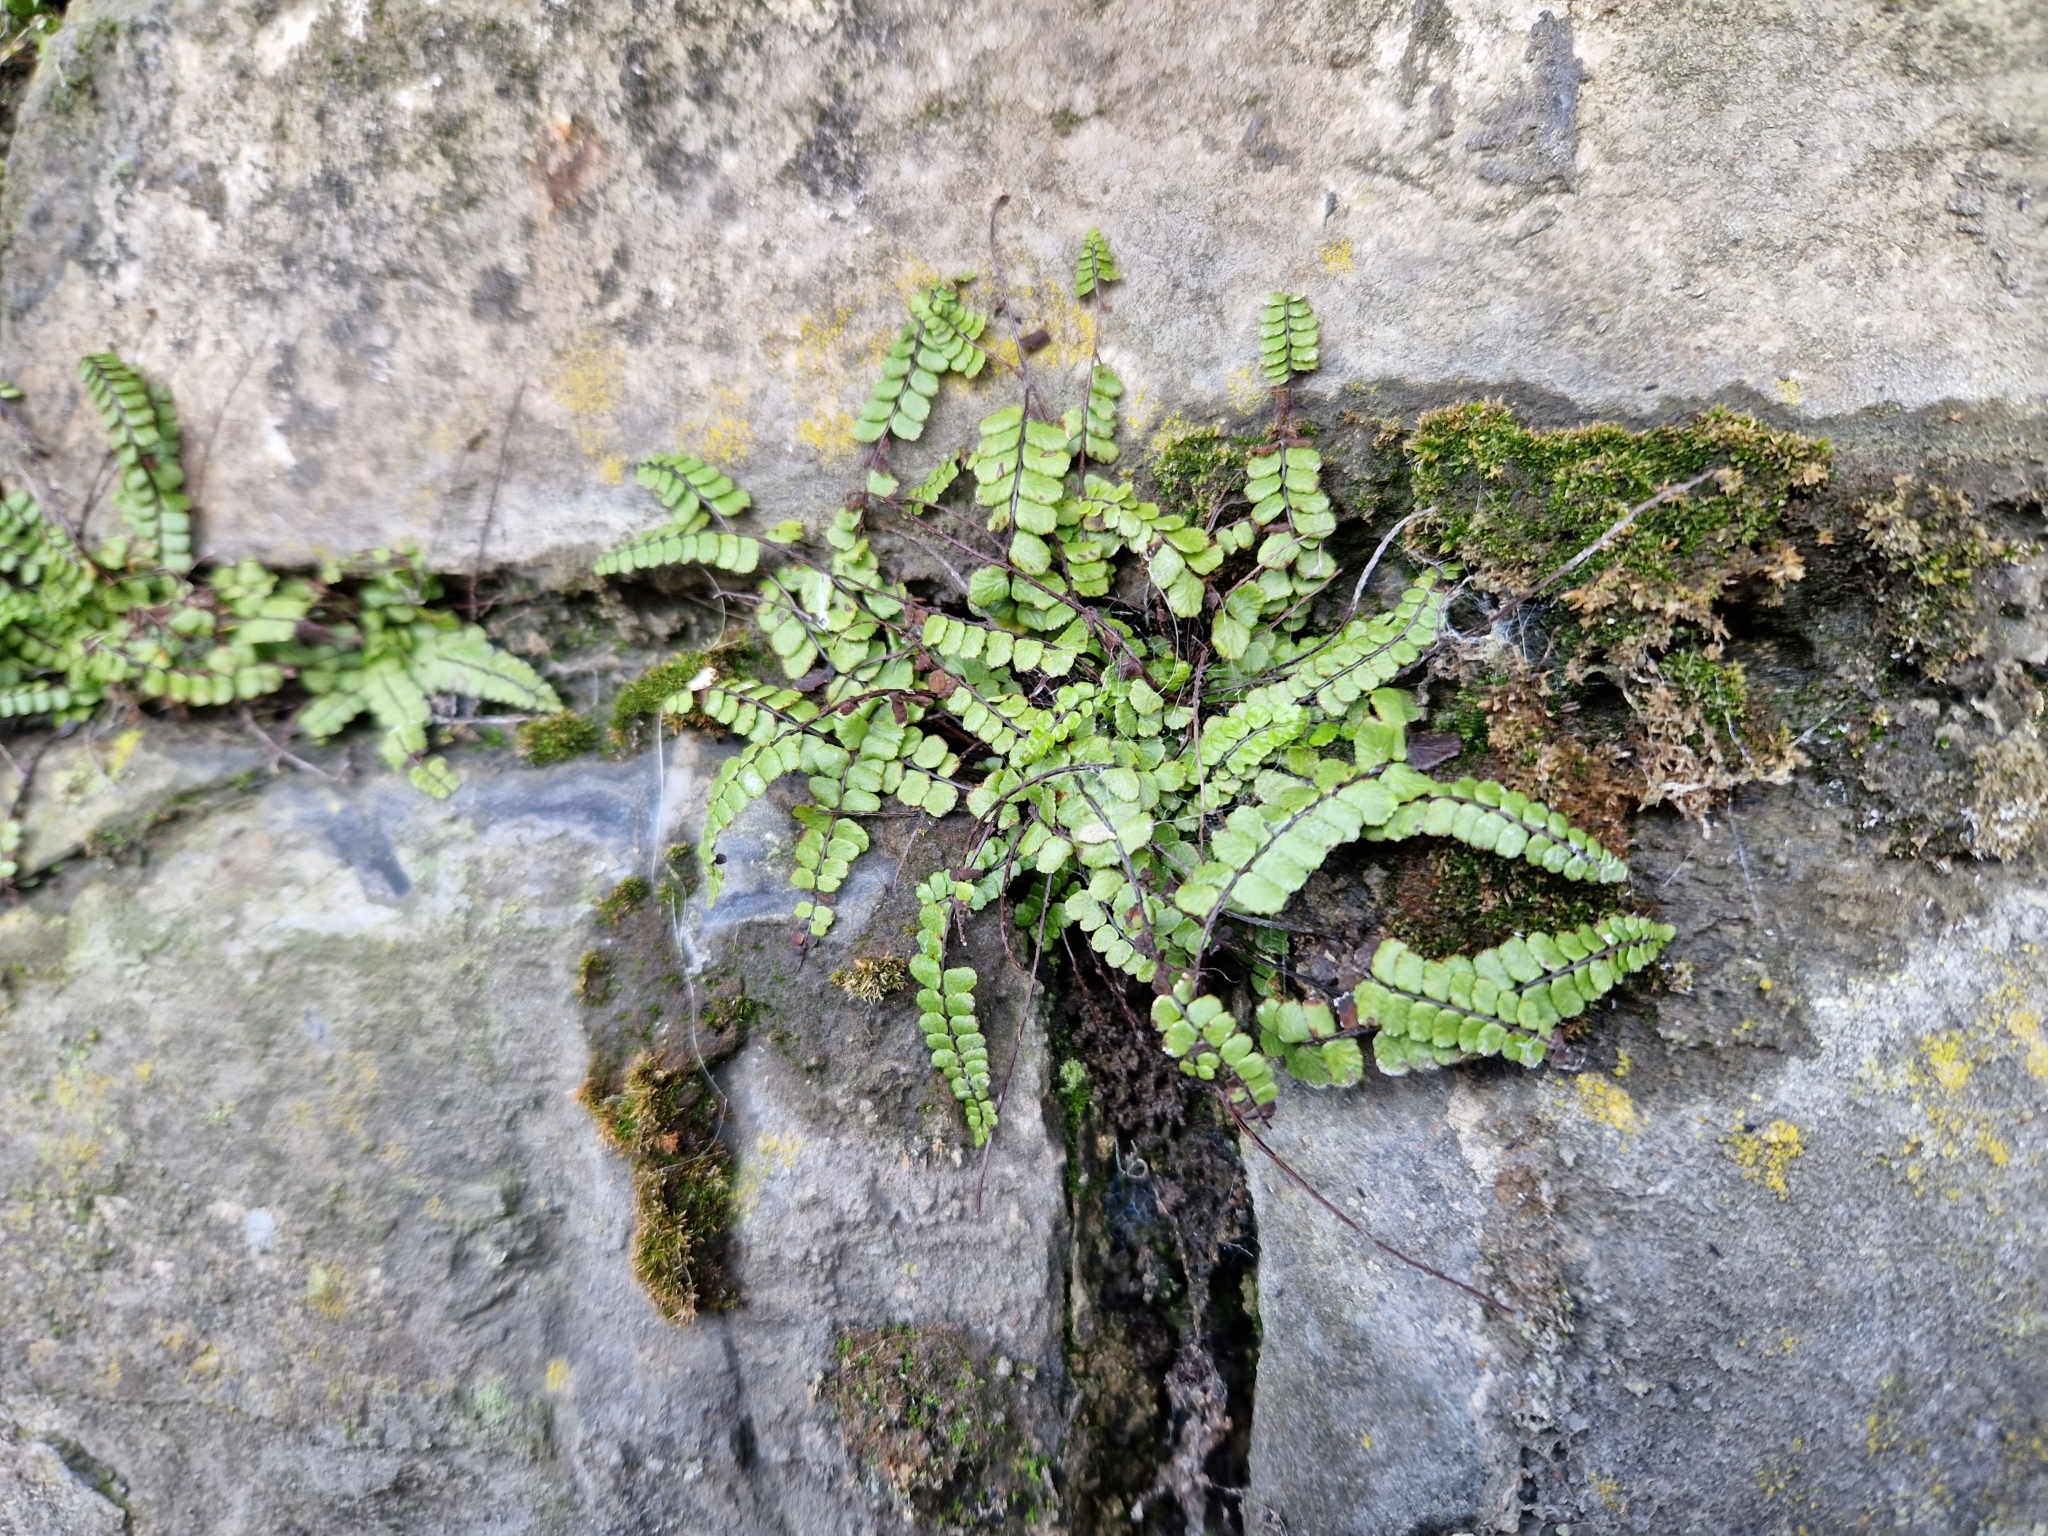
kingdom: Plantae
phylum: Tracheophyta
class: Polypodiopsida
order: Polypodiales
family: Aspleniaceae
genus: Asplenium
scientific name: Asplenium trichomanes
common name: Maidenhair spleenwort
